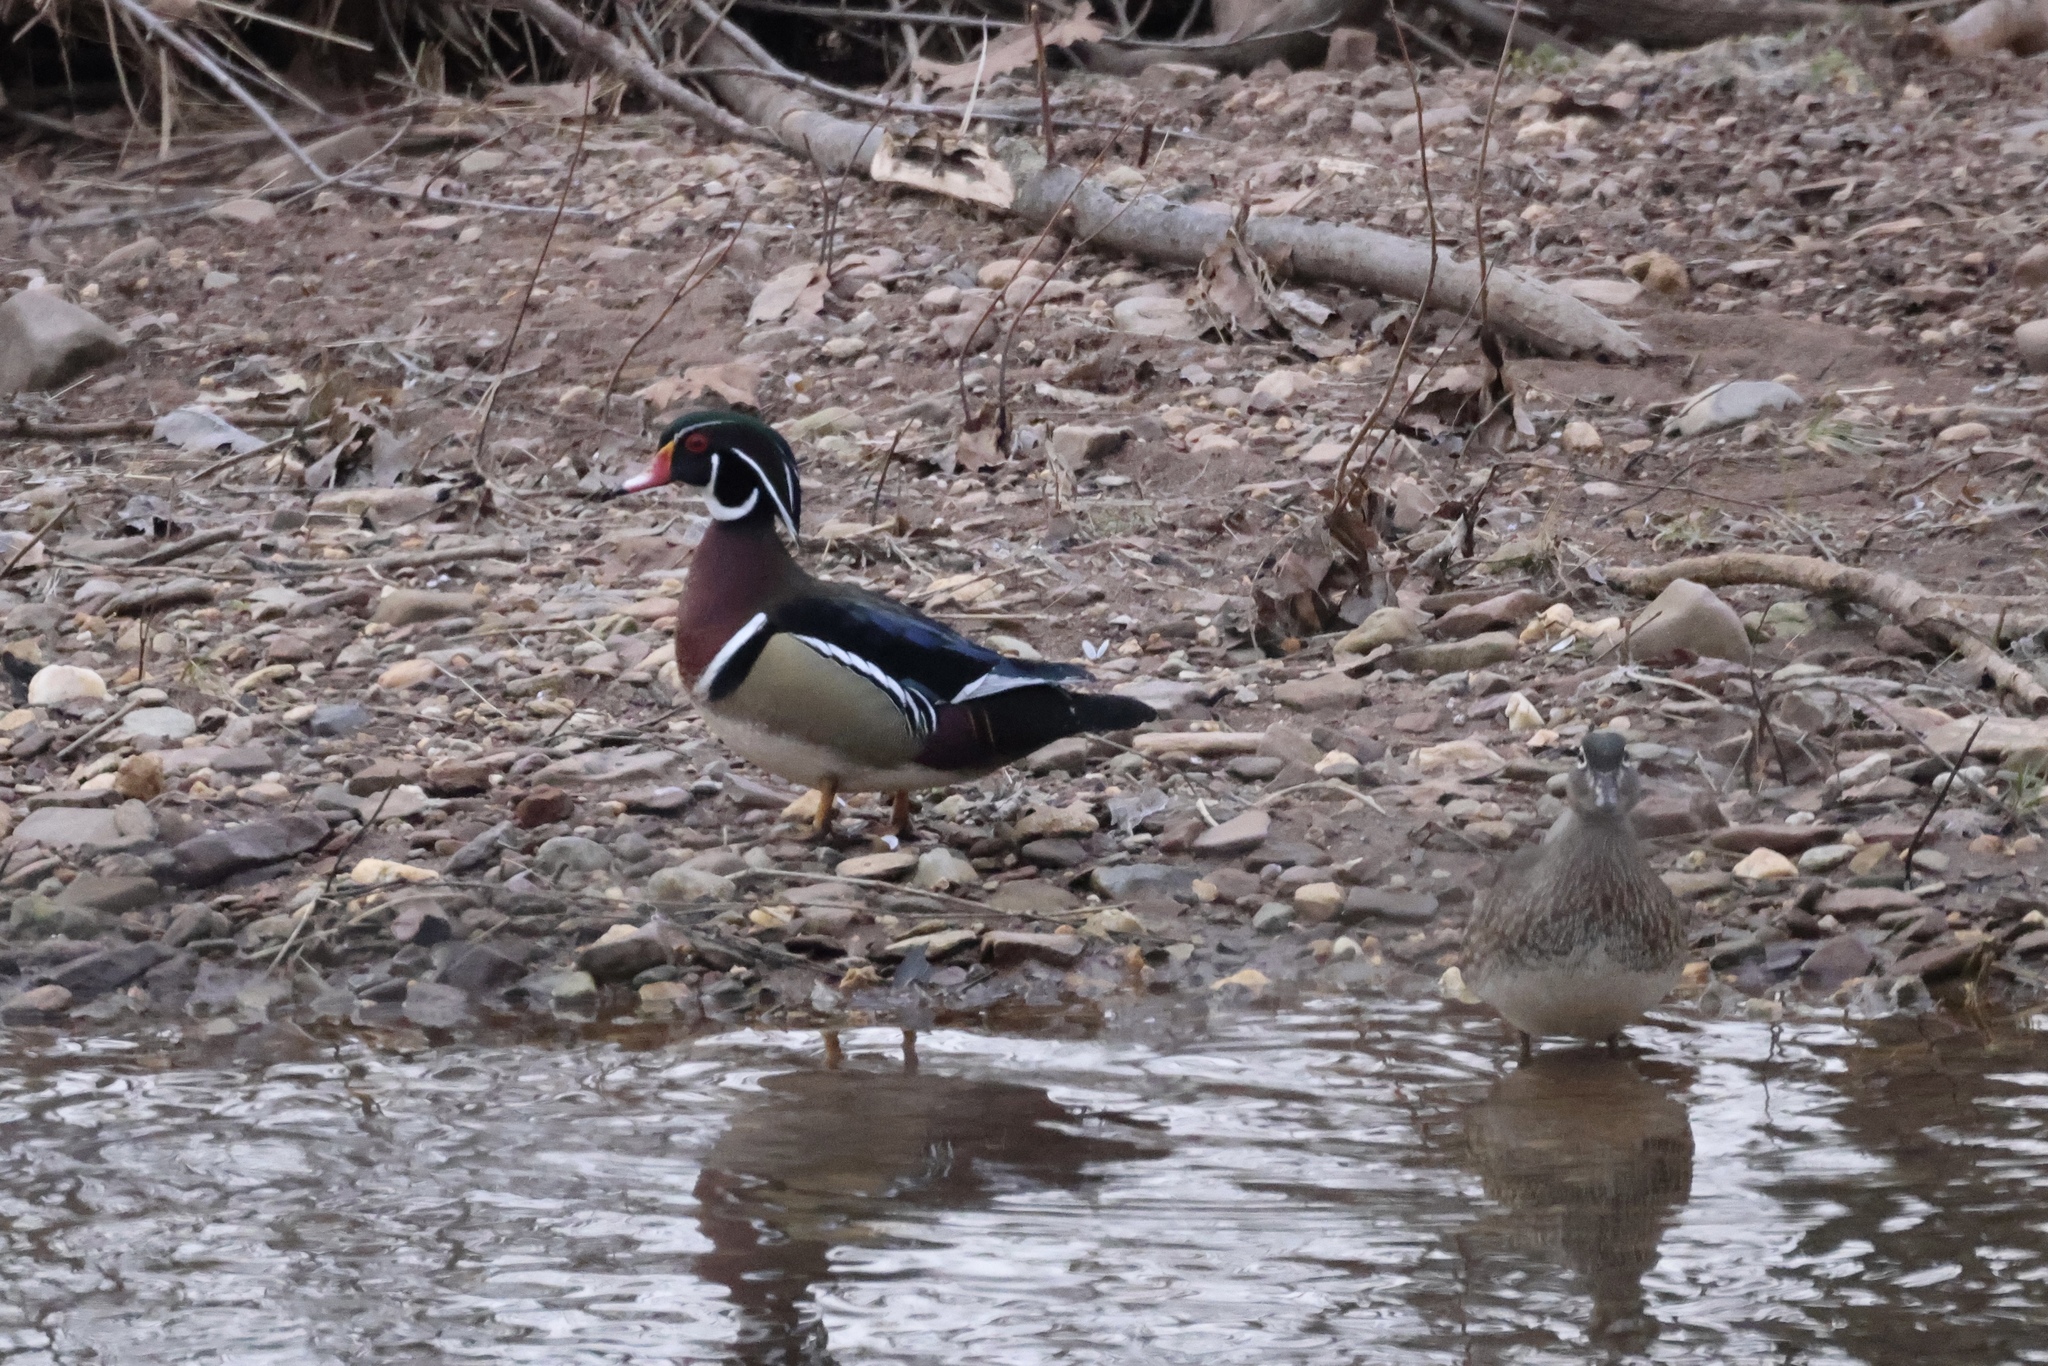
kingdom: Animalia
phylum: Chordata
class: Aves
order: Anseriformes
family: Anatidae
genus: Aix
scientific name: Aix sponsa
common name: Wood duck
